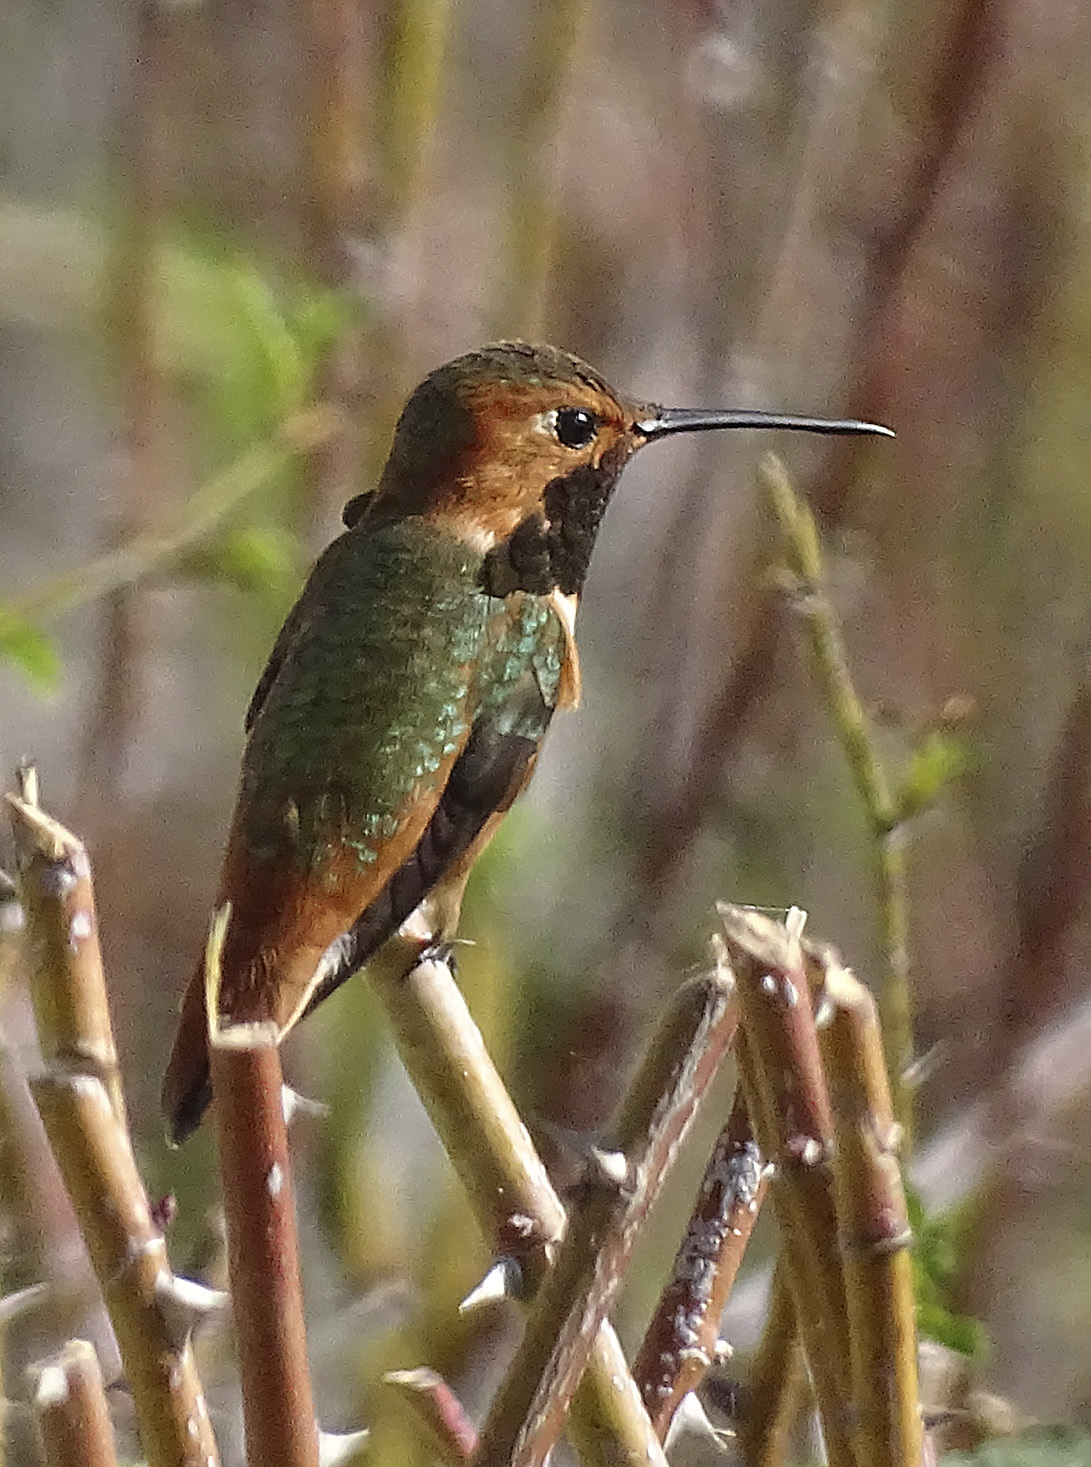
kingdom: Animalia
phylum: Chordata
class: Aves
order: Apodiformes
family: Trochilidae
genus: Selasphorus
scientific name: Selasphorus sasin
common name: Allen's hummingbird
